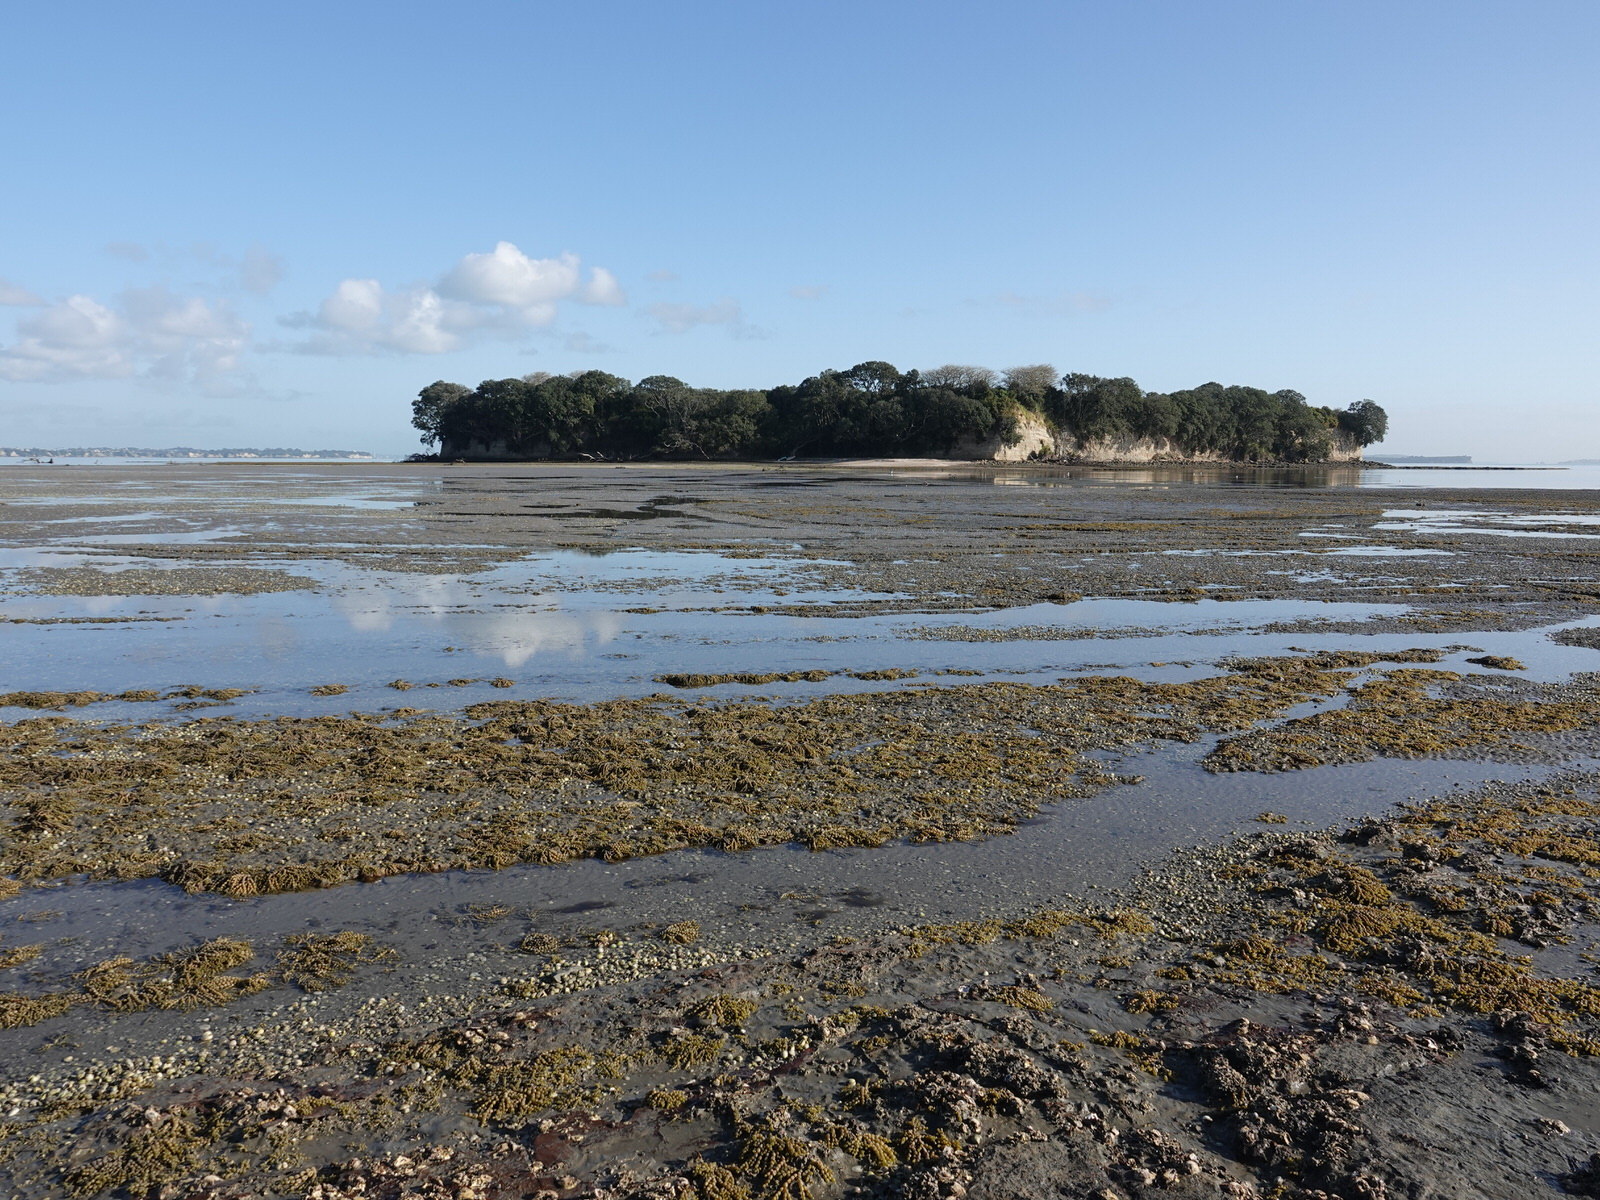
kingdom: Chromista
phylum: Ochrophyta
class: Phaeophyceae
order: Fucales
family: Hormosiraceae
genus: Hormosira
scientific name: Hormosira banksii
